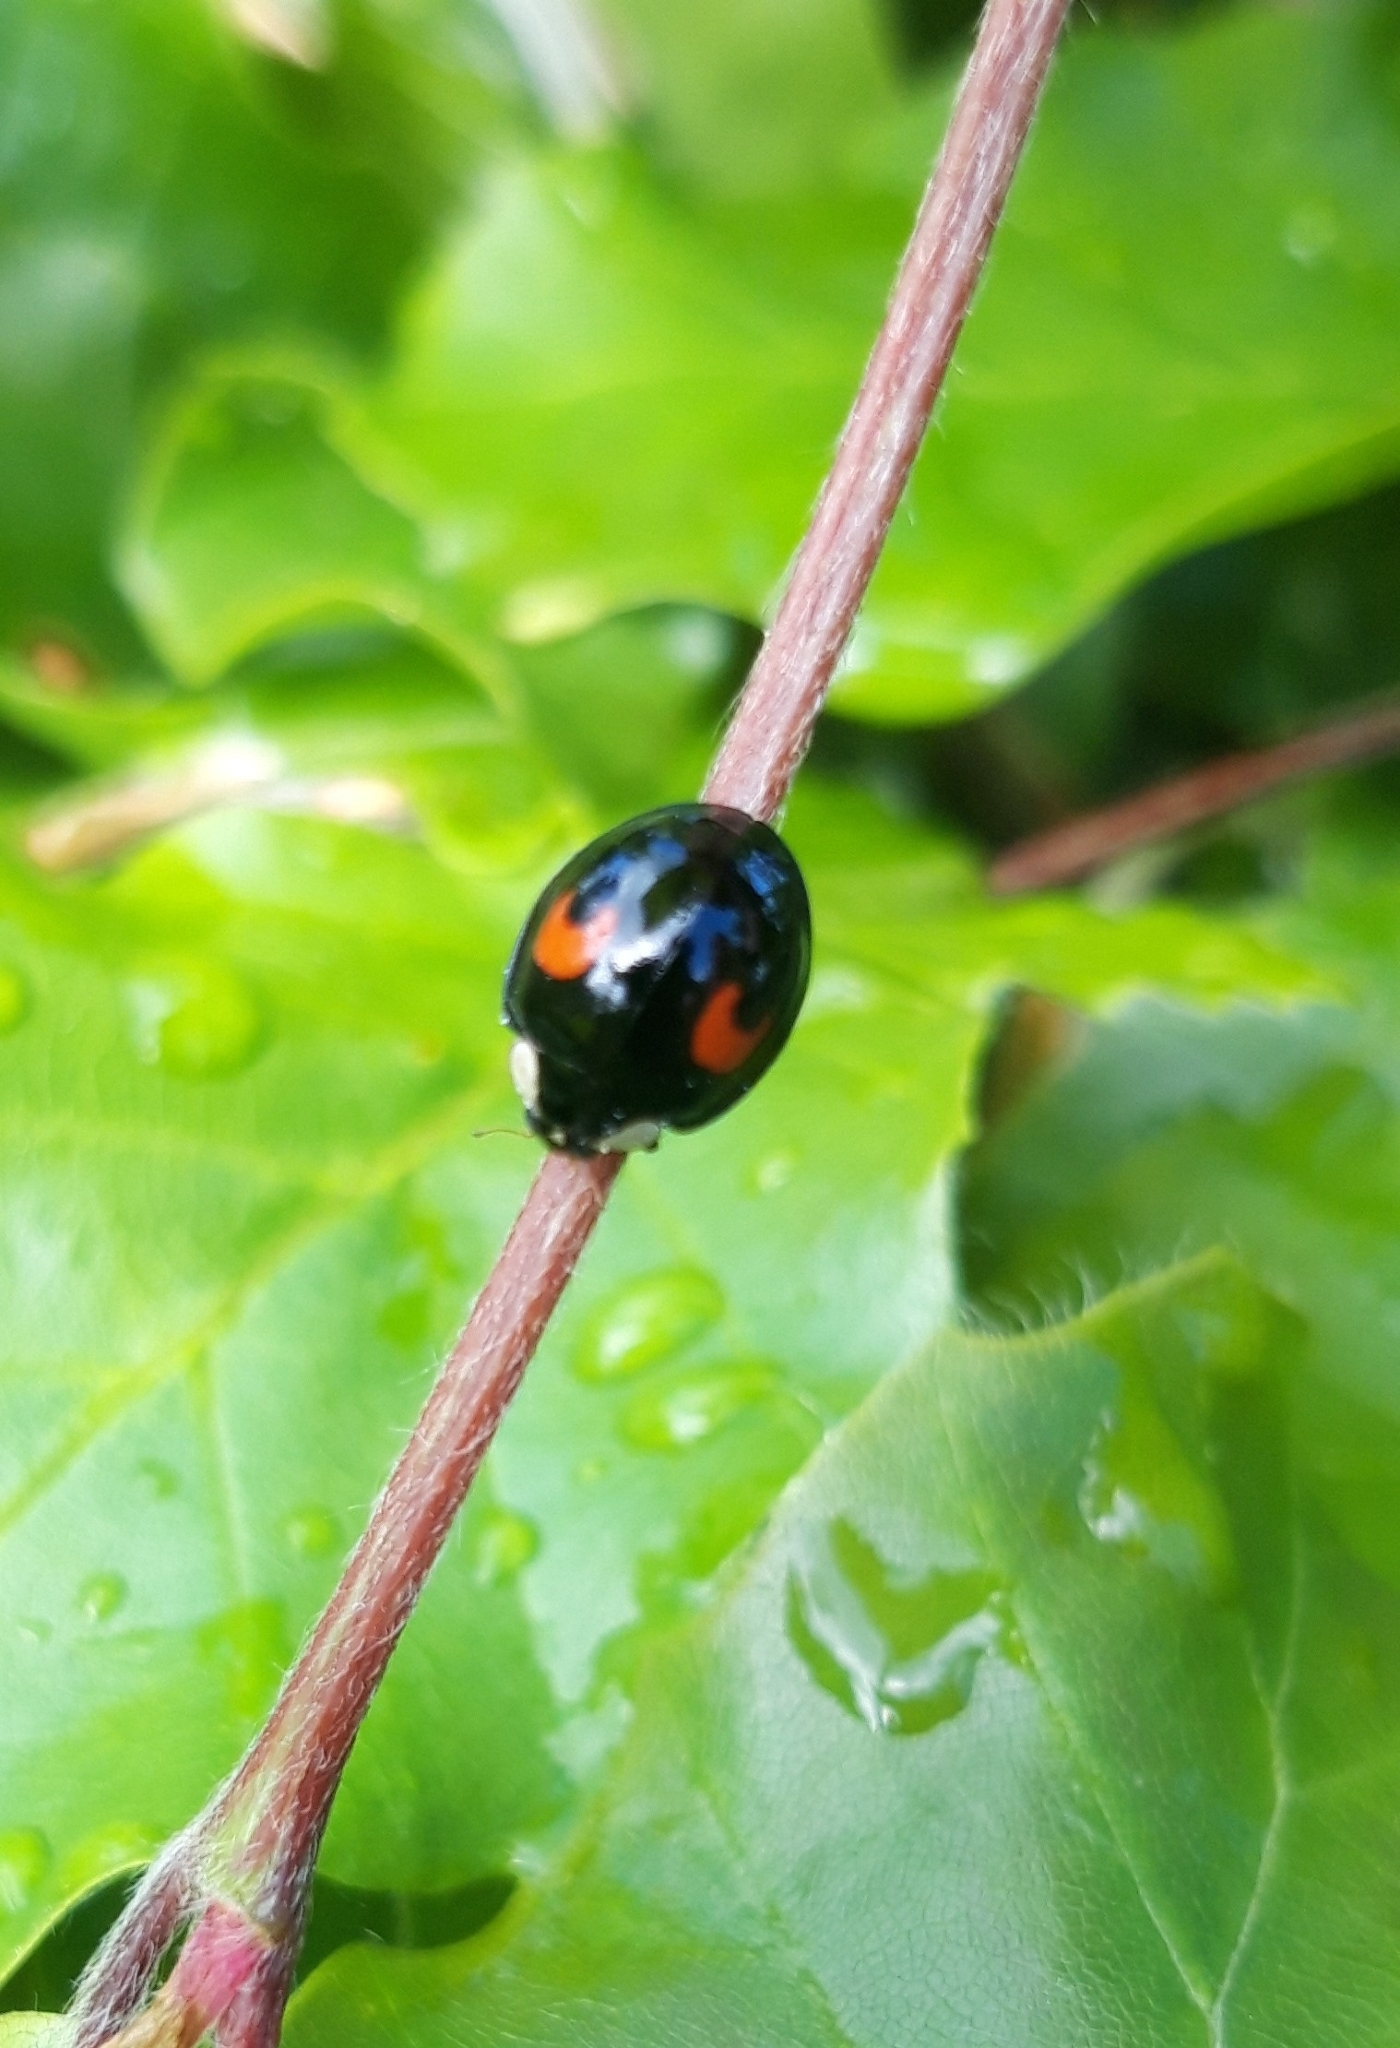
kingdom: Animalia
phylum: Arthropoda
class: Insecta
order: Coleoptera
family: Coccinellidae
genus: Harmonia
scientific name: Harmonia axyridis
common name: Harlequin ladybird
